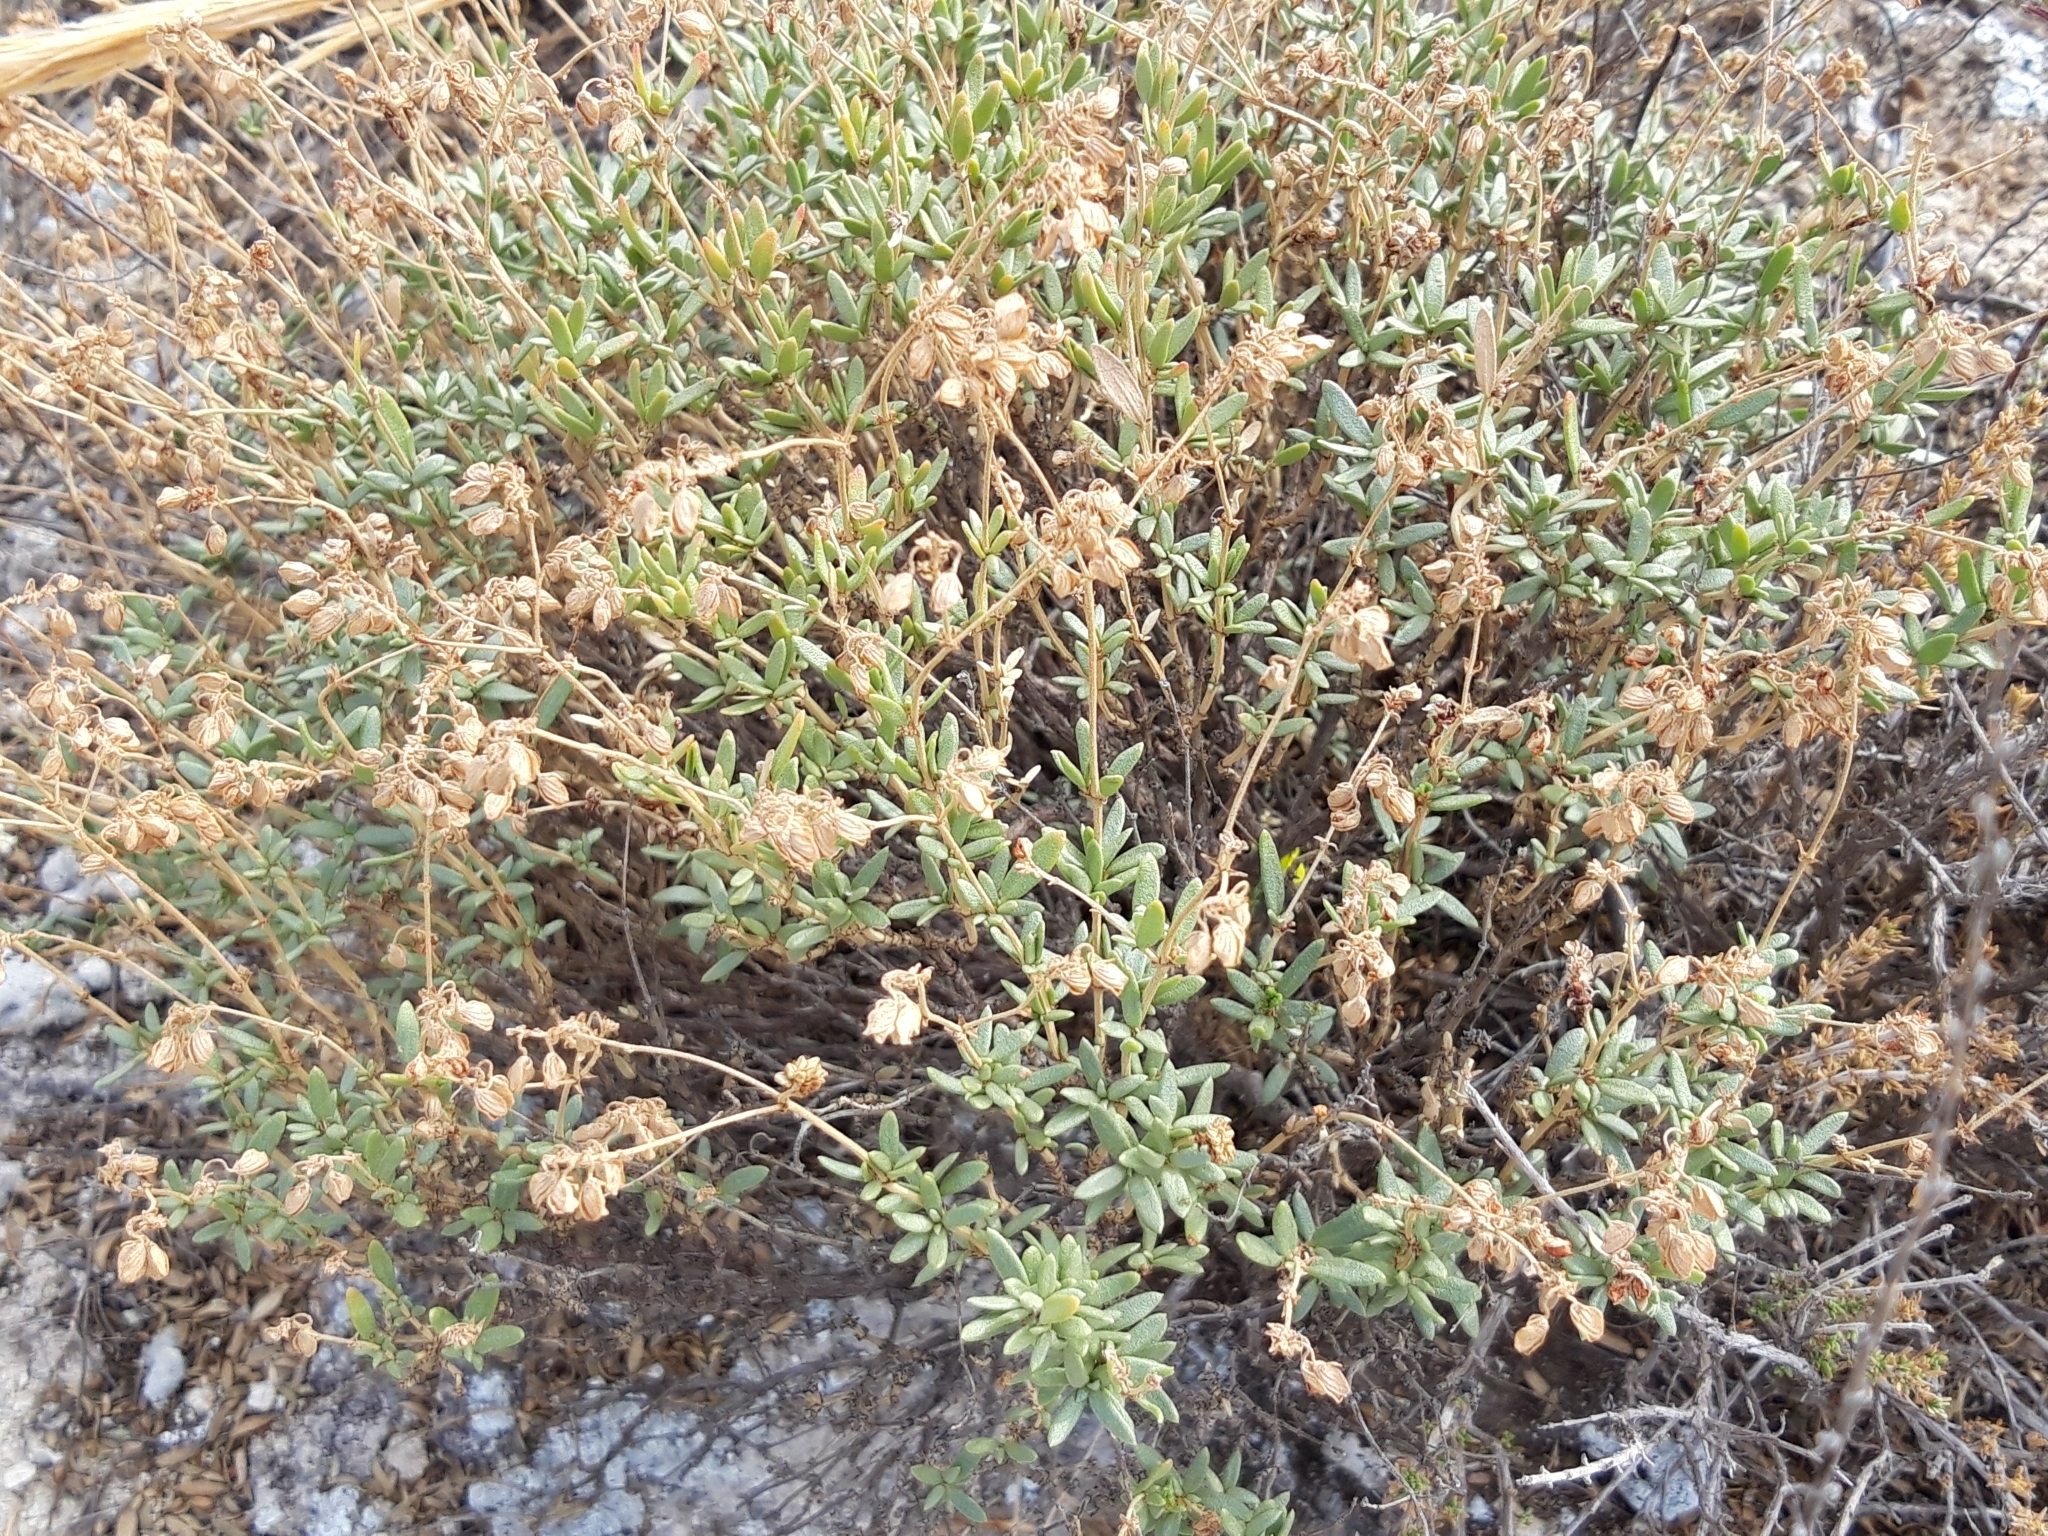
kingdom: Plantae
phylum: Tracheophyta
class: Magnoliopsida
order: Malvales
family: Cistaceae
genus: Helianthemum
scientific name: Helianthemum squamatum
